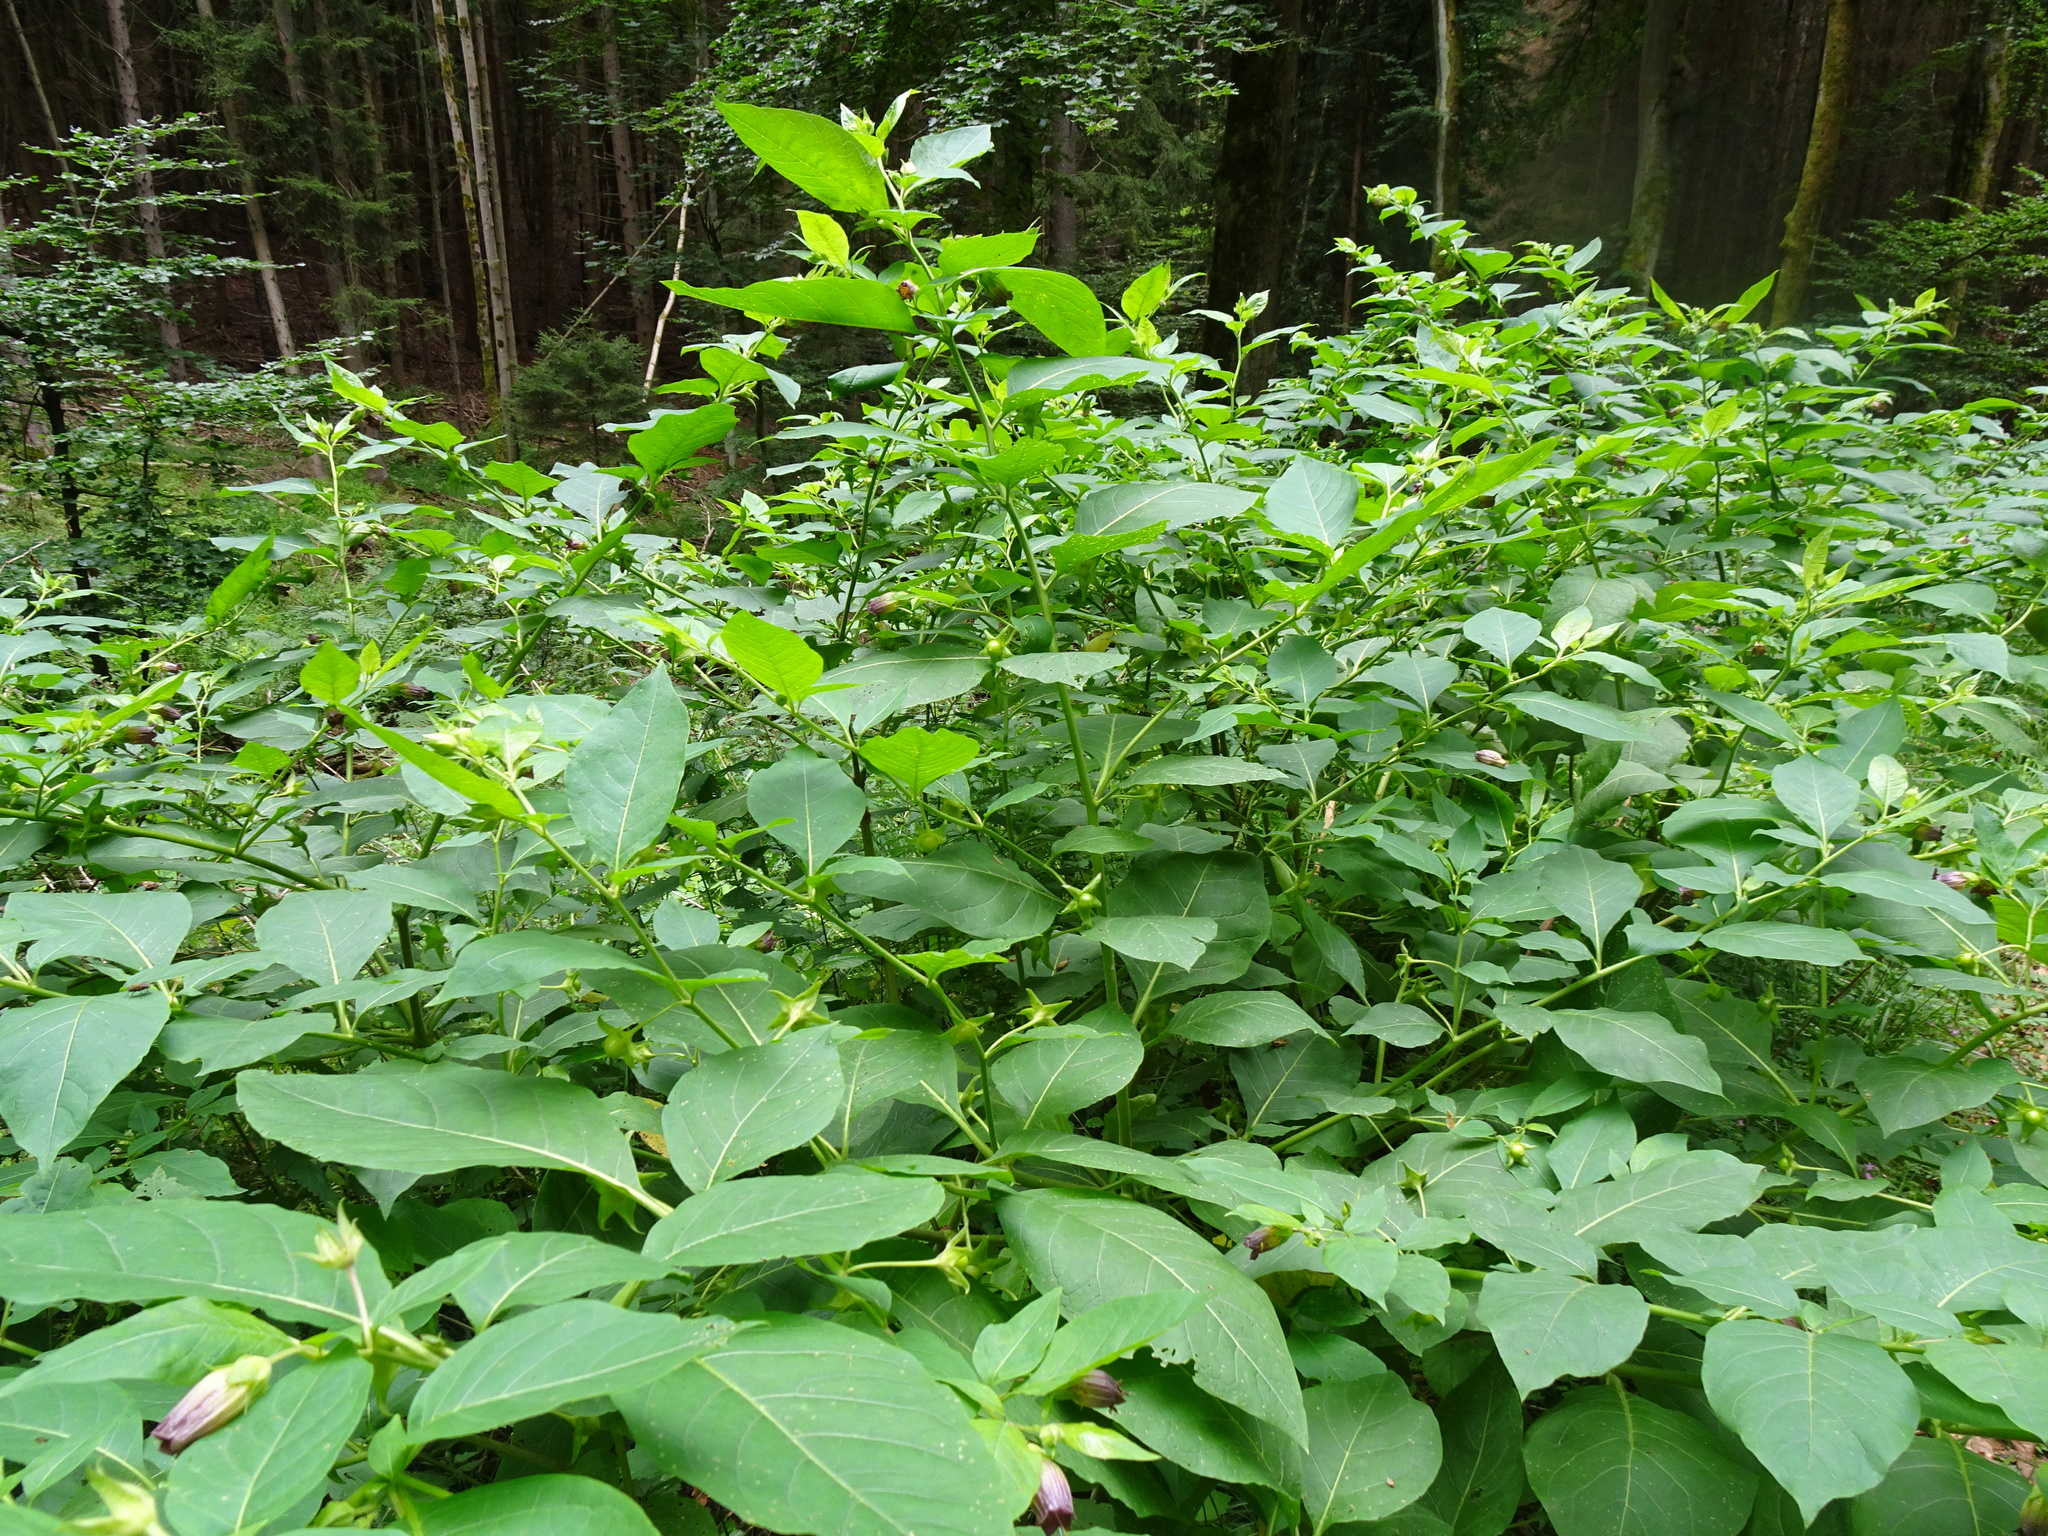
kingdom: Plantae
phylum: Tracheophyta
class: Magnoliopsida
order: Solanales
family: Solanaceae
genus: Atropa
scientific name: Atropa belladonna
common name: Deadly nightshade
